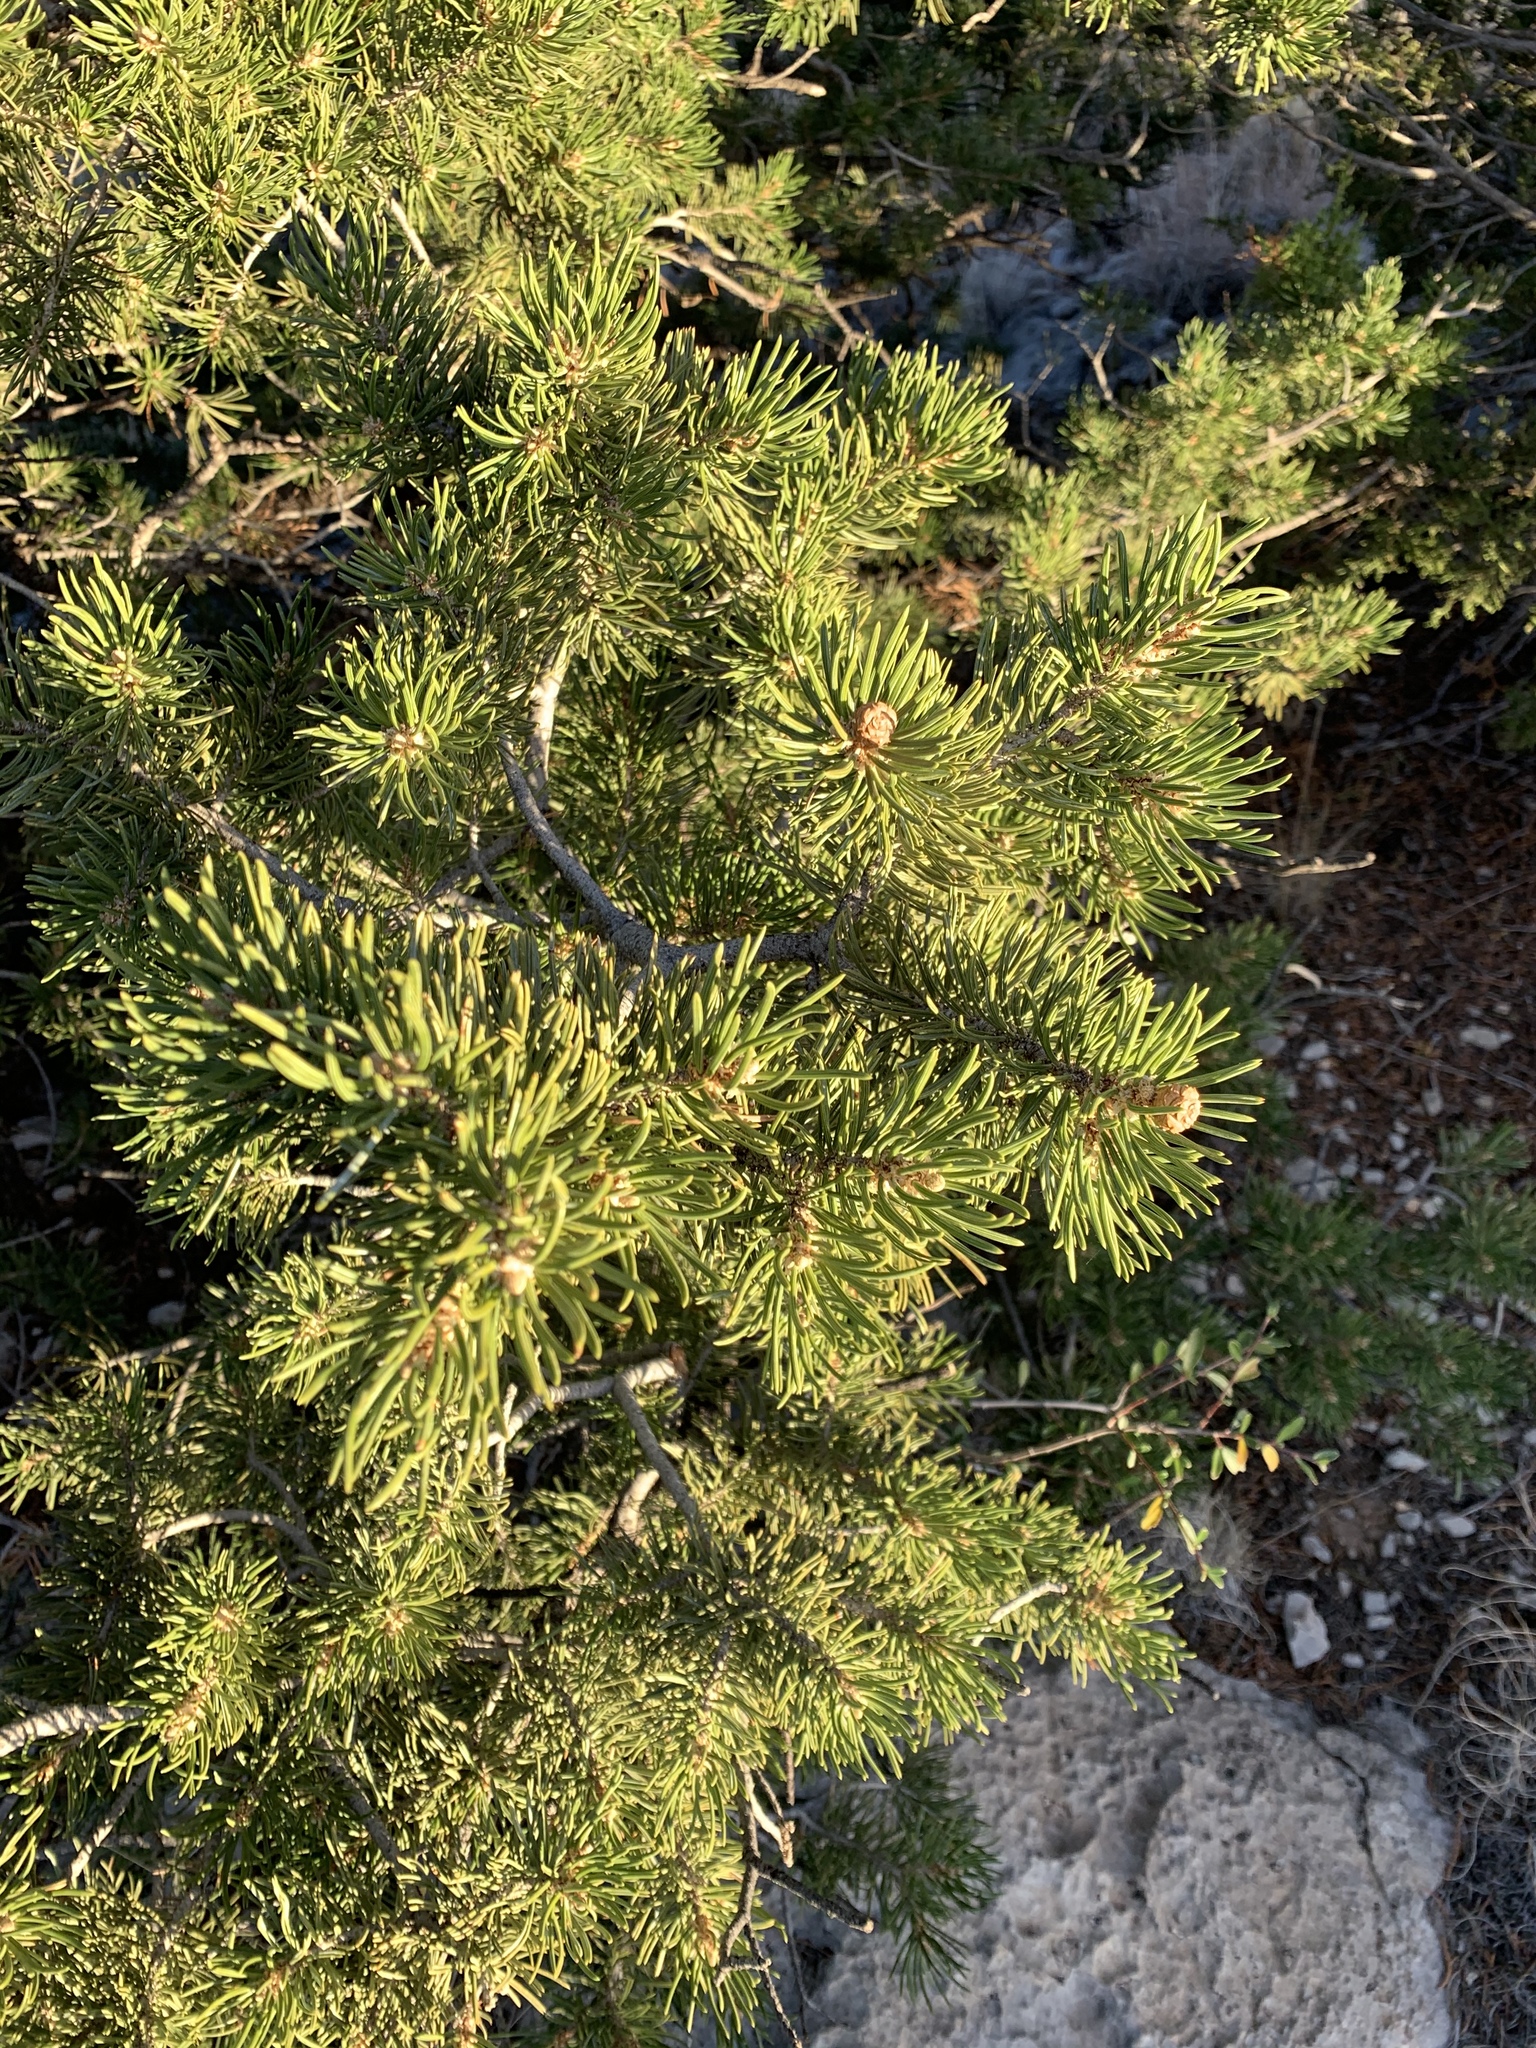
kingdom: Plantae
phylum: Tracheophyta
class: Pinopsida
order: Pinales
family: Pinaceae
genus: Pinus
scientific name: Pinus edulis
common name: Colorado pinyon
